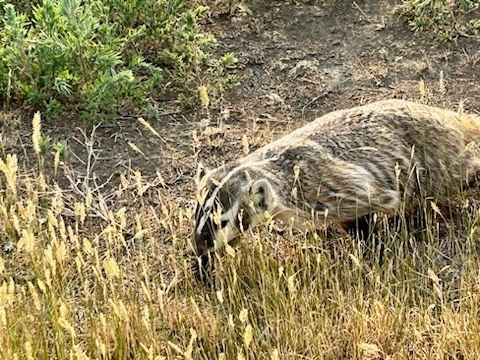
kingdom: Animalia
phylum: Chordata
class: Mammalia
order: Carnivora
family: Mustelidae
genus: Taxidea
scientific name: Taxidea taxus
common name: American badger
